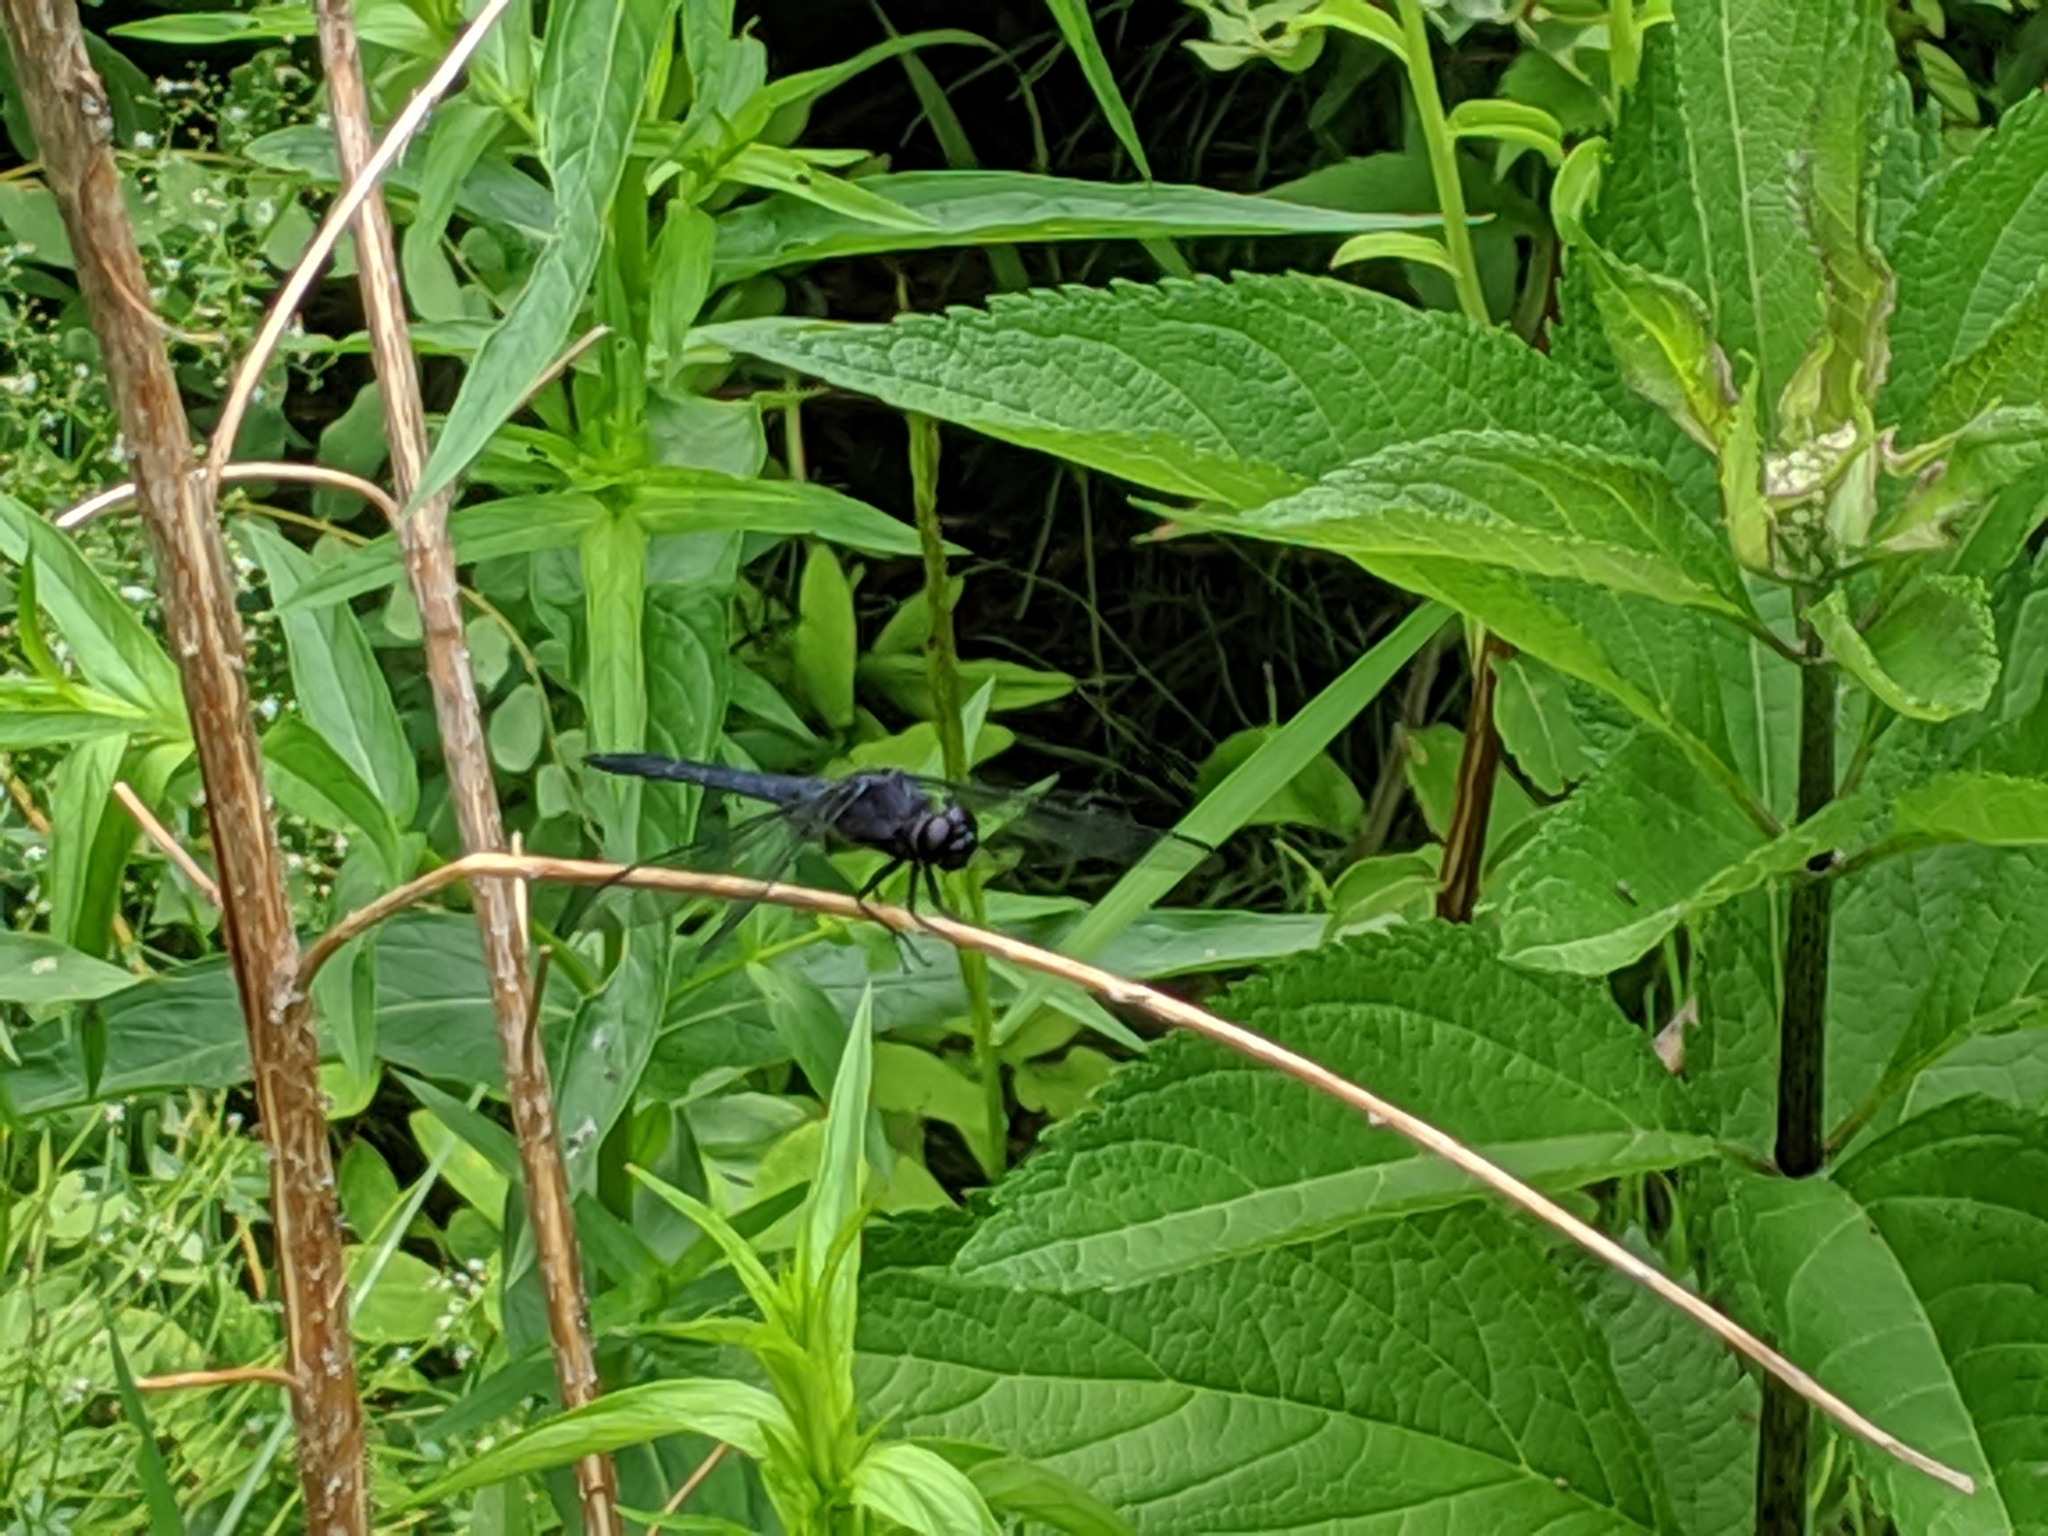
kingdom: Animalia
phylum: Arthropoda
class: Insecta
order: Odonata
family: Libellulidae
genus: Libellula
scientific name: Libellula incesta
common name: Slaty skimmer
